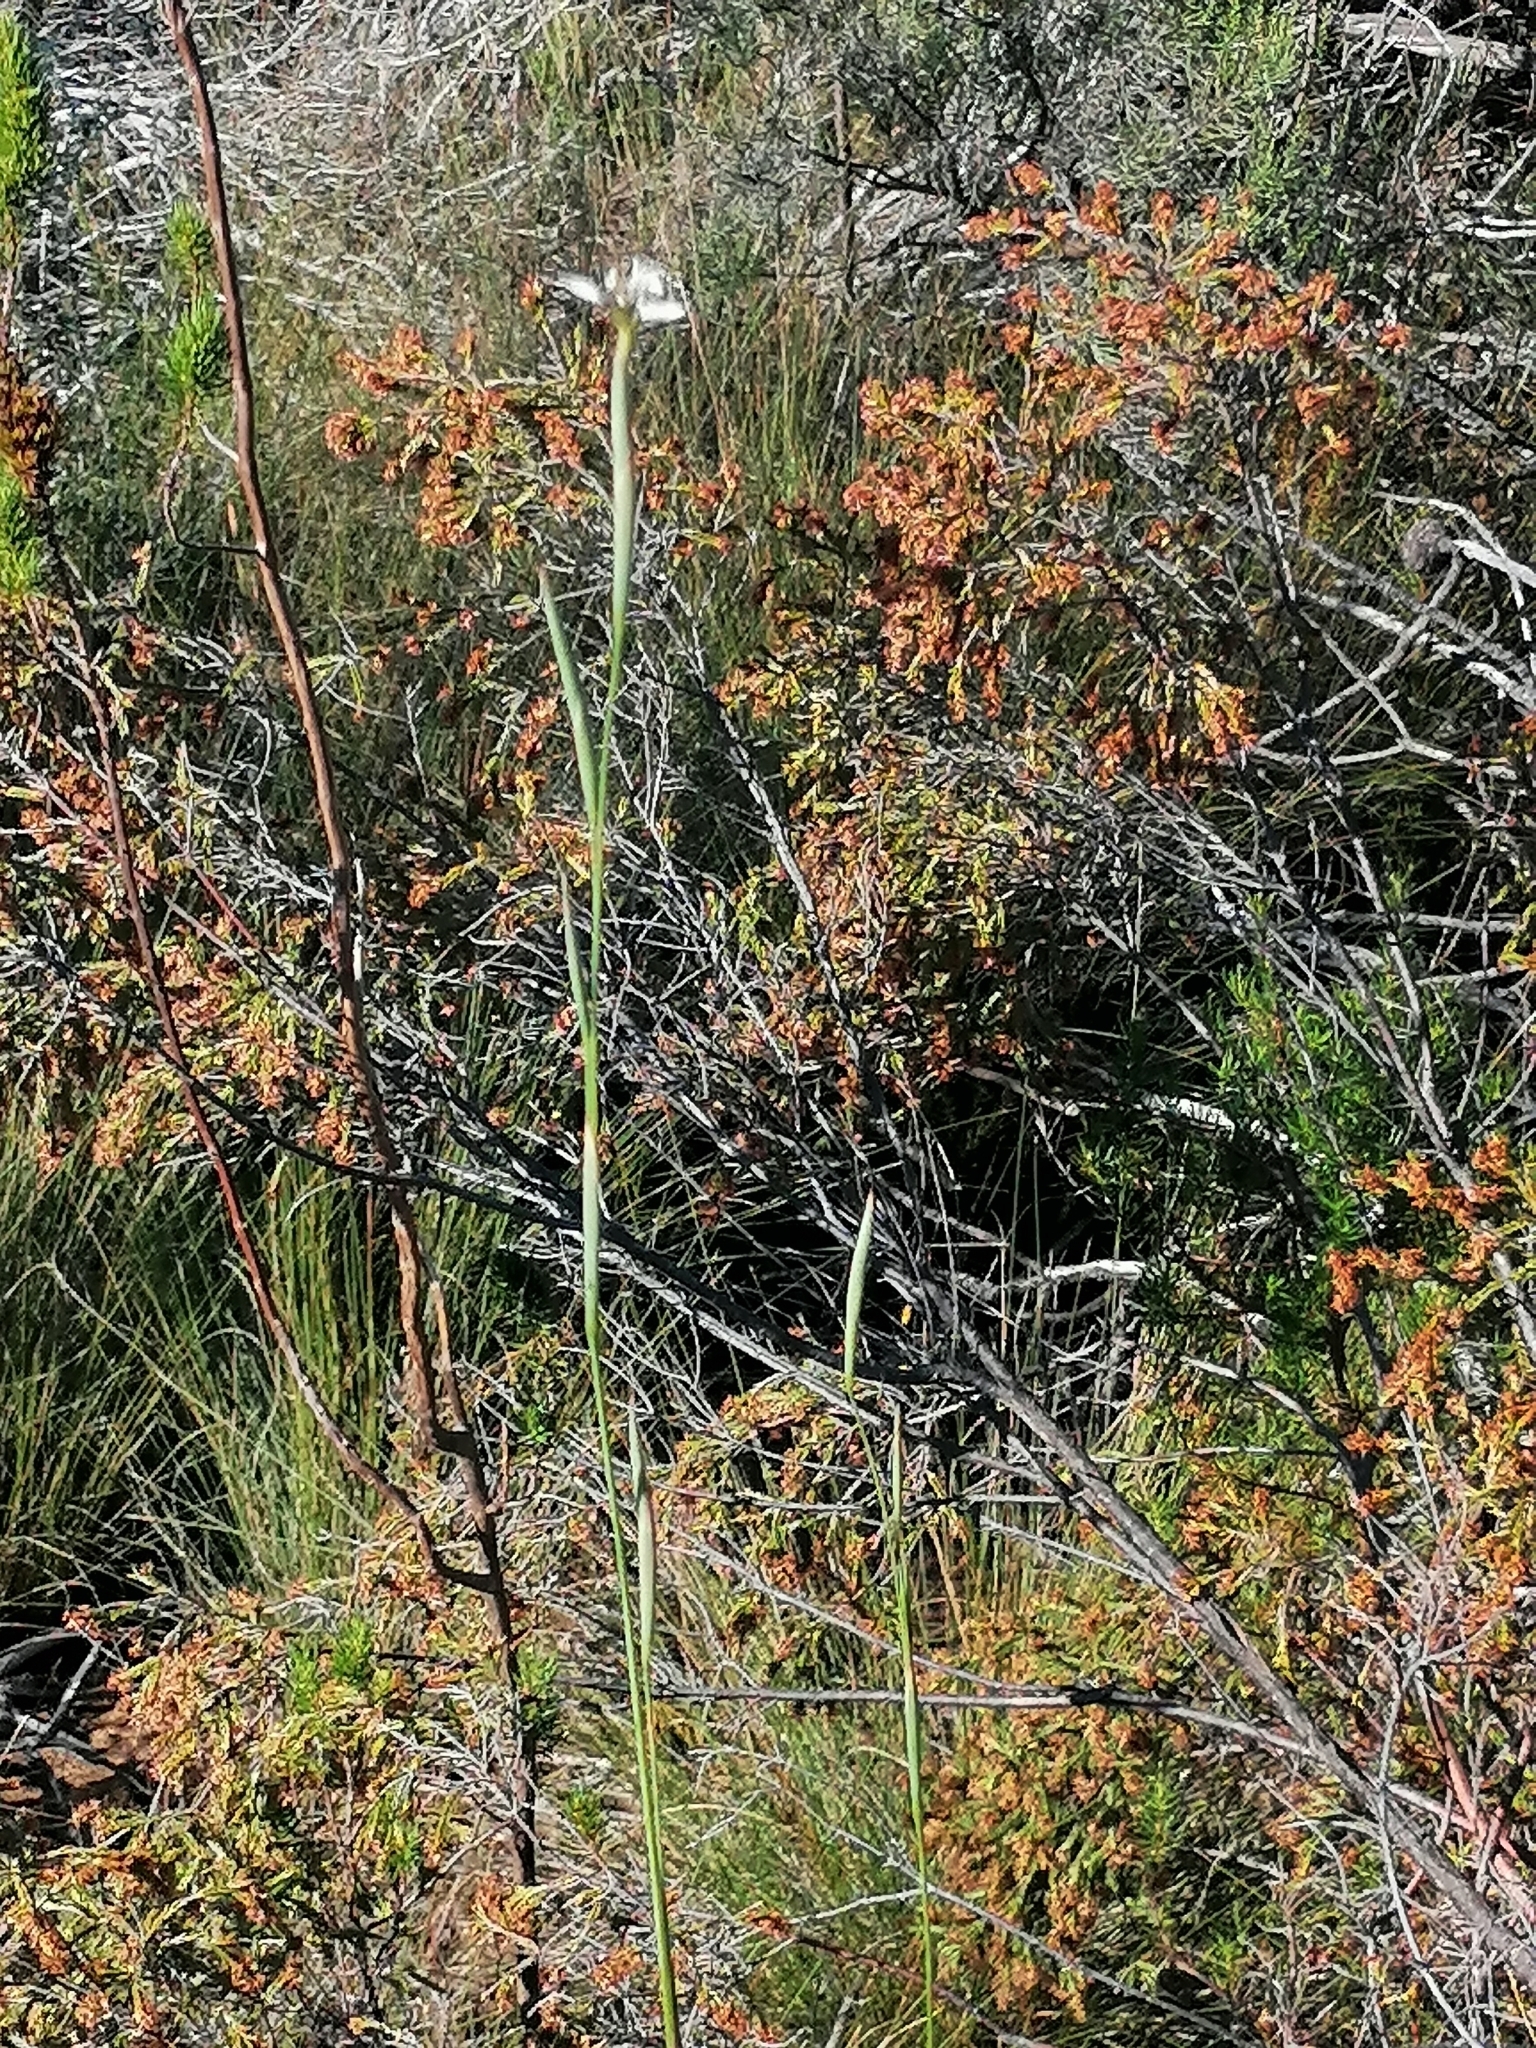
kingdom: Plantae
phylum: Tracheophyta
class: Liliopsida
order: Asparagales
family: Iridaceae
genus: Moraea
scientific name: Moraea tricuspidata
